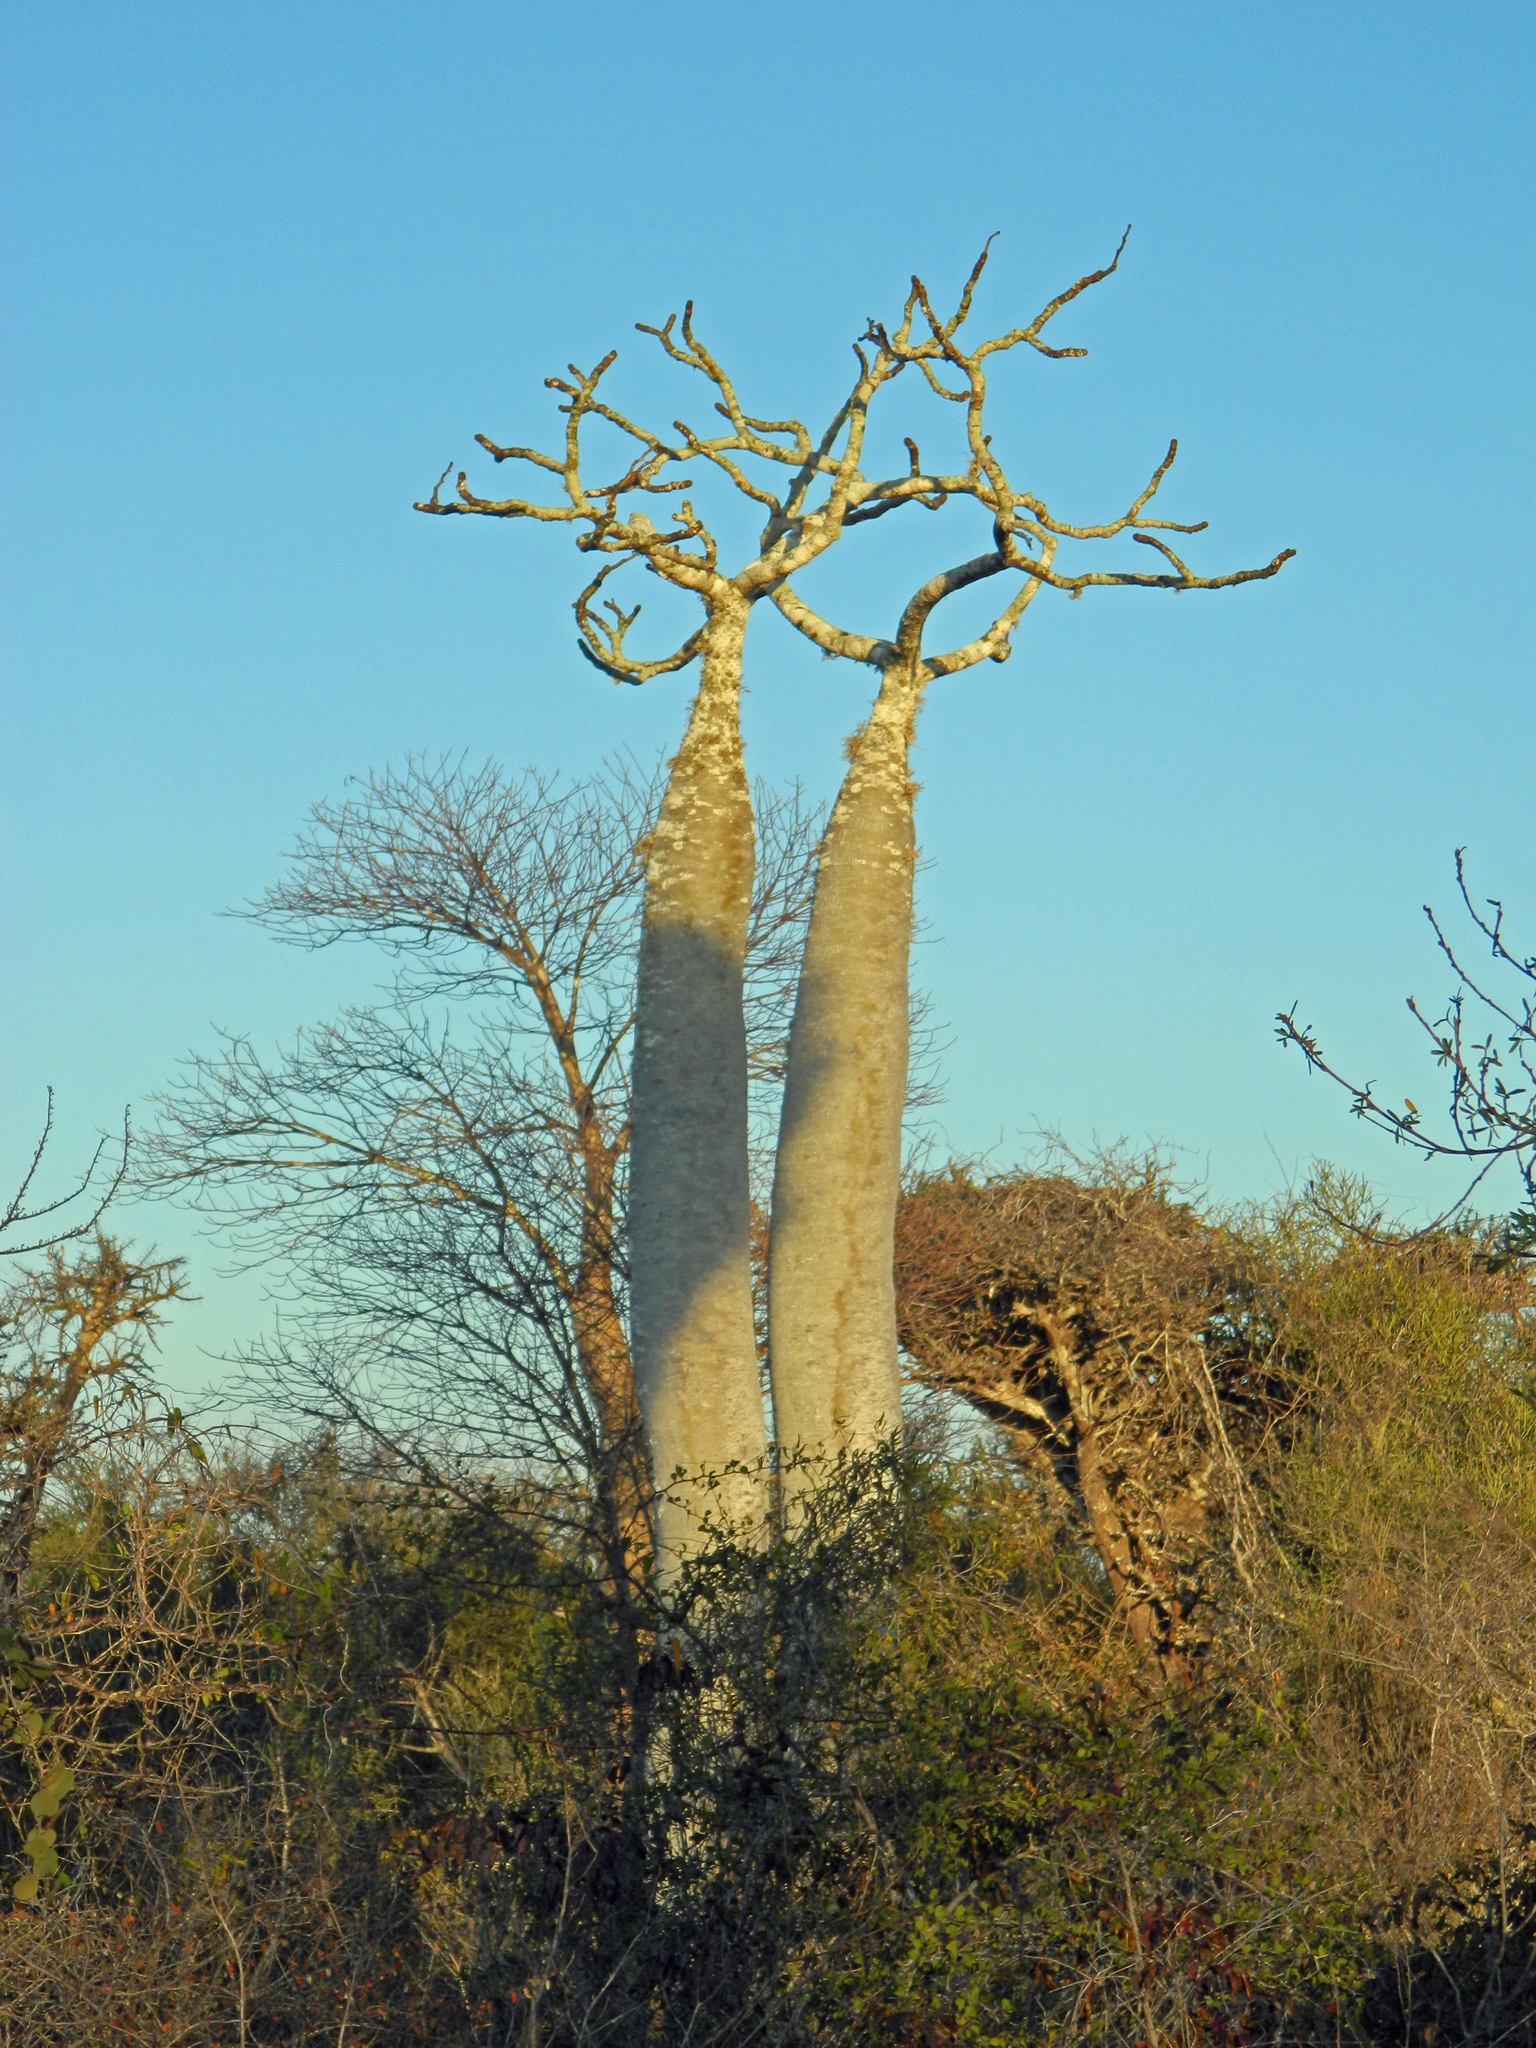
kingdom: Plantae
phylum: Tracheophyta
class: Magnoliopsida
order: Gentianales
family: Apocynaceae
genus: Pachypodium
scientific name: Pachypodium geayi
